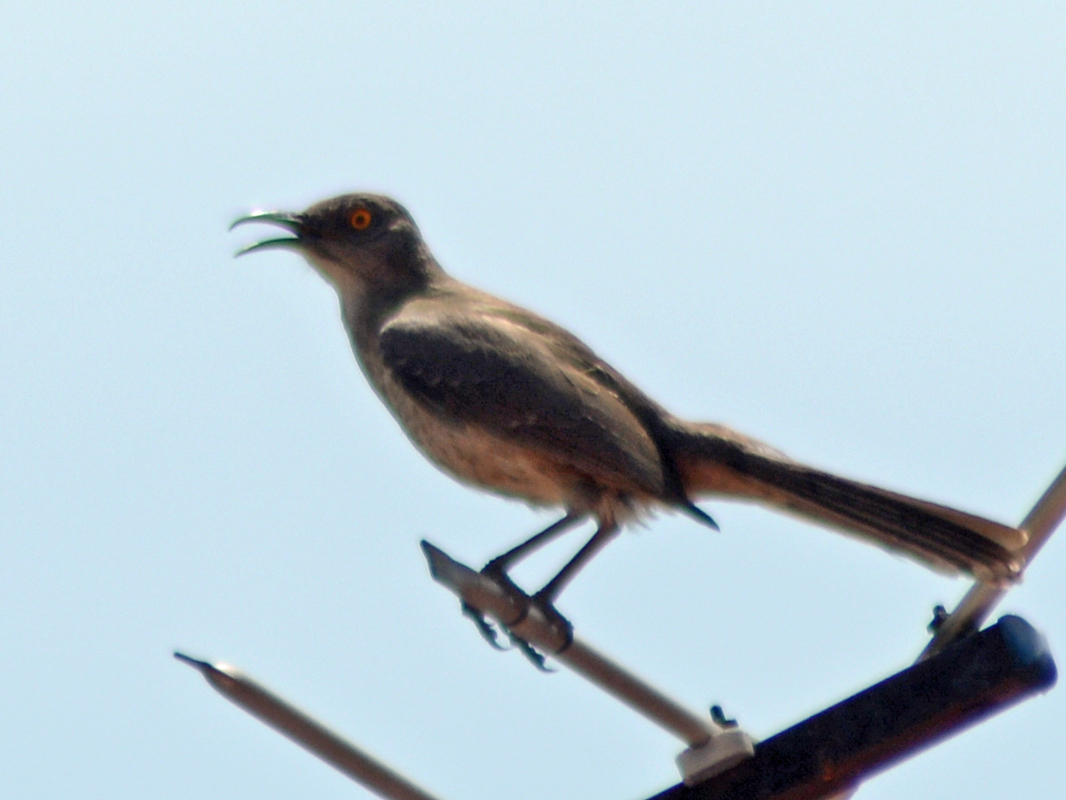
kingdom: Animalia
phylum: Chordata
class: Aves
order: Passeriformes
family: Mimidae
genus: Toxostoma
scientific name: Toxostoma curvirostre
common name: Curve-billed thrasher
